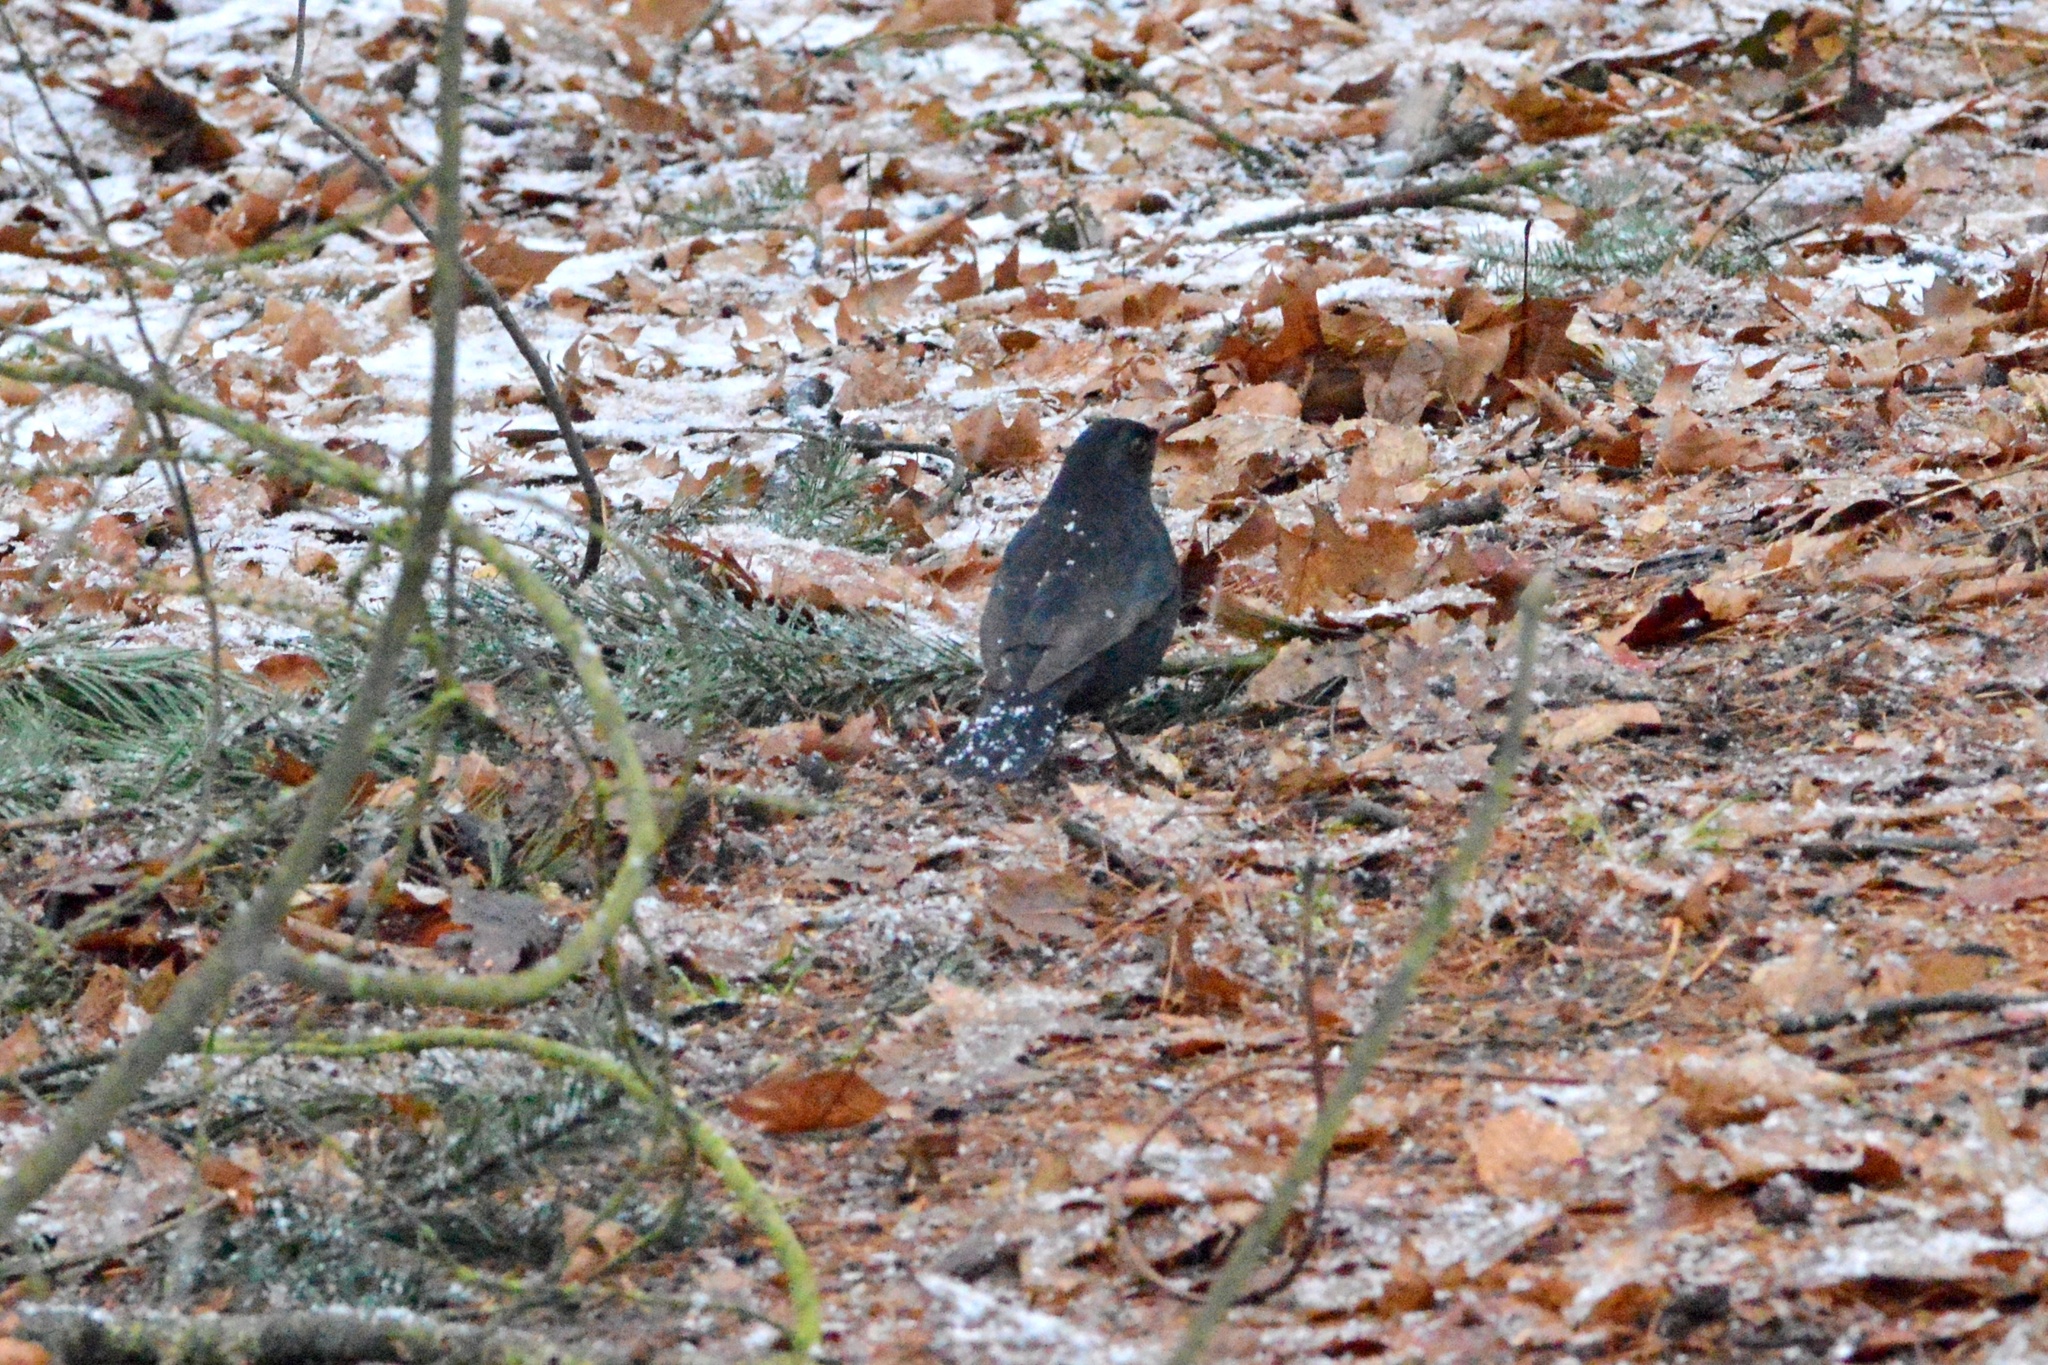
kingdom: Animalia
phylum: Chordata
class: Aves
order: Passeriformes
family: Turdidae
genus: Turdus
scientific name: Turdus merula
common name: Common blackbird
